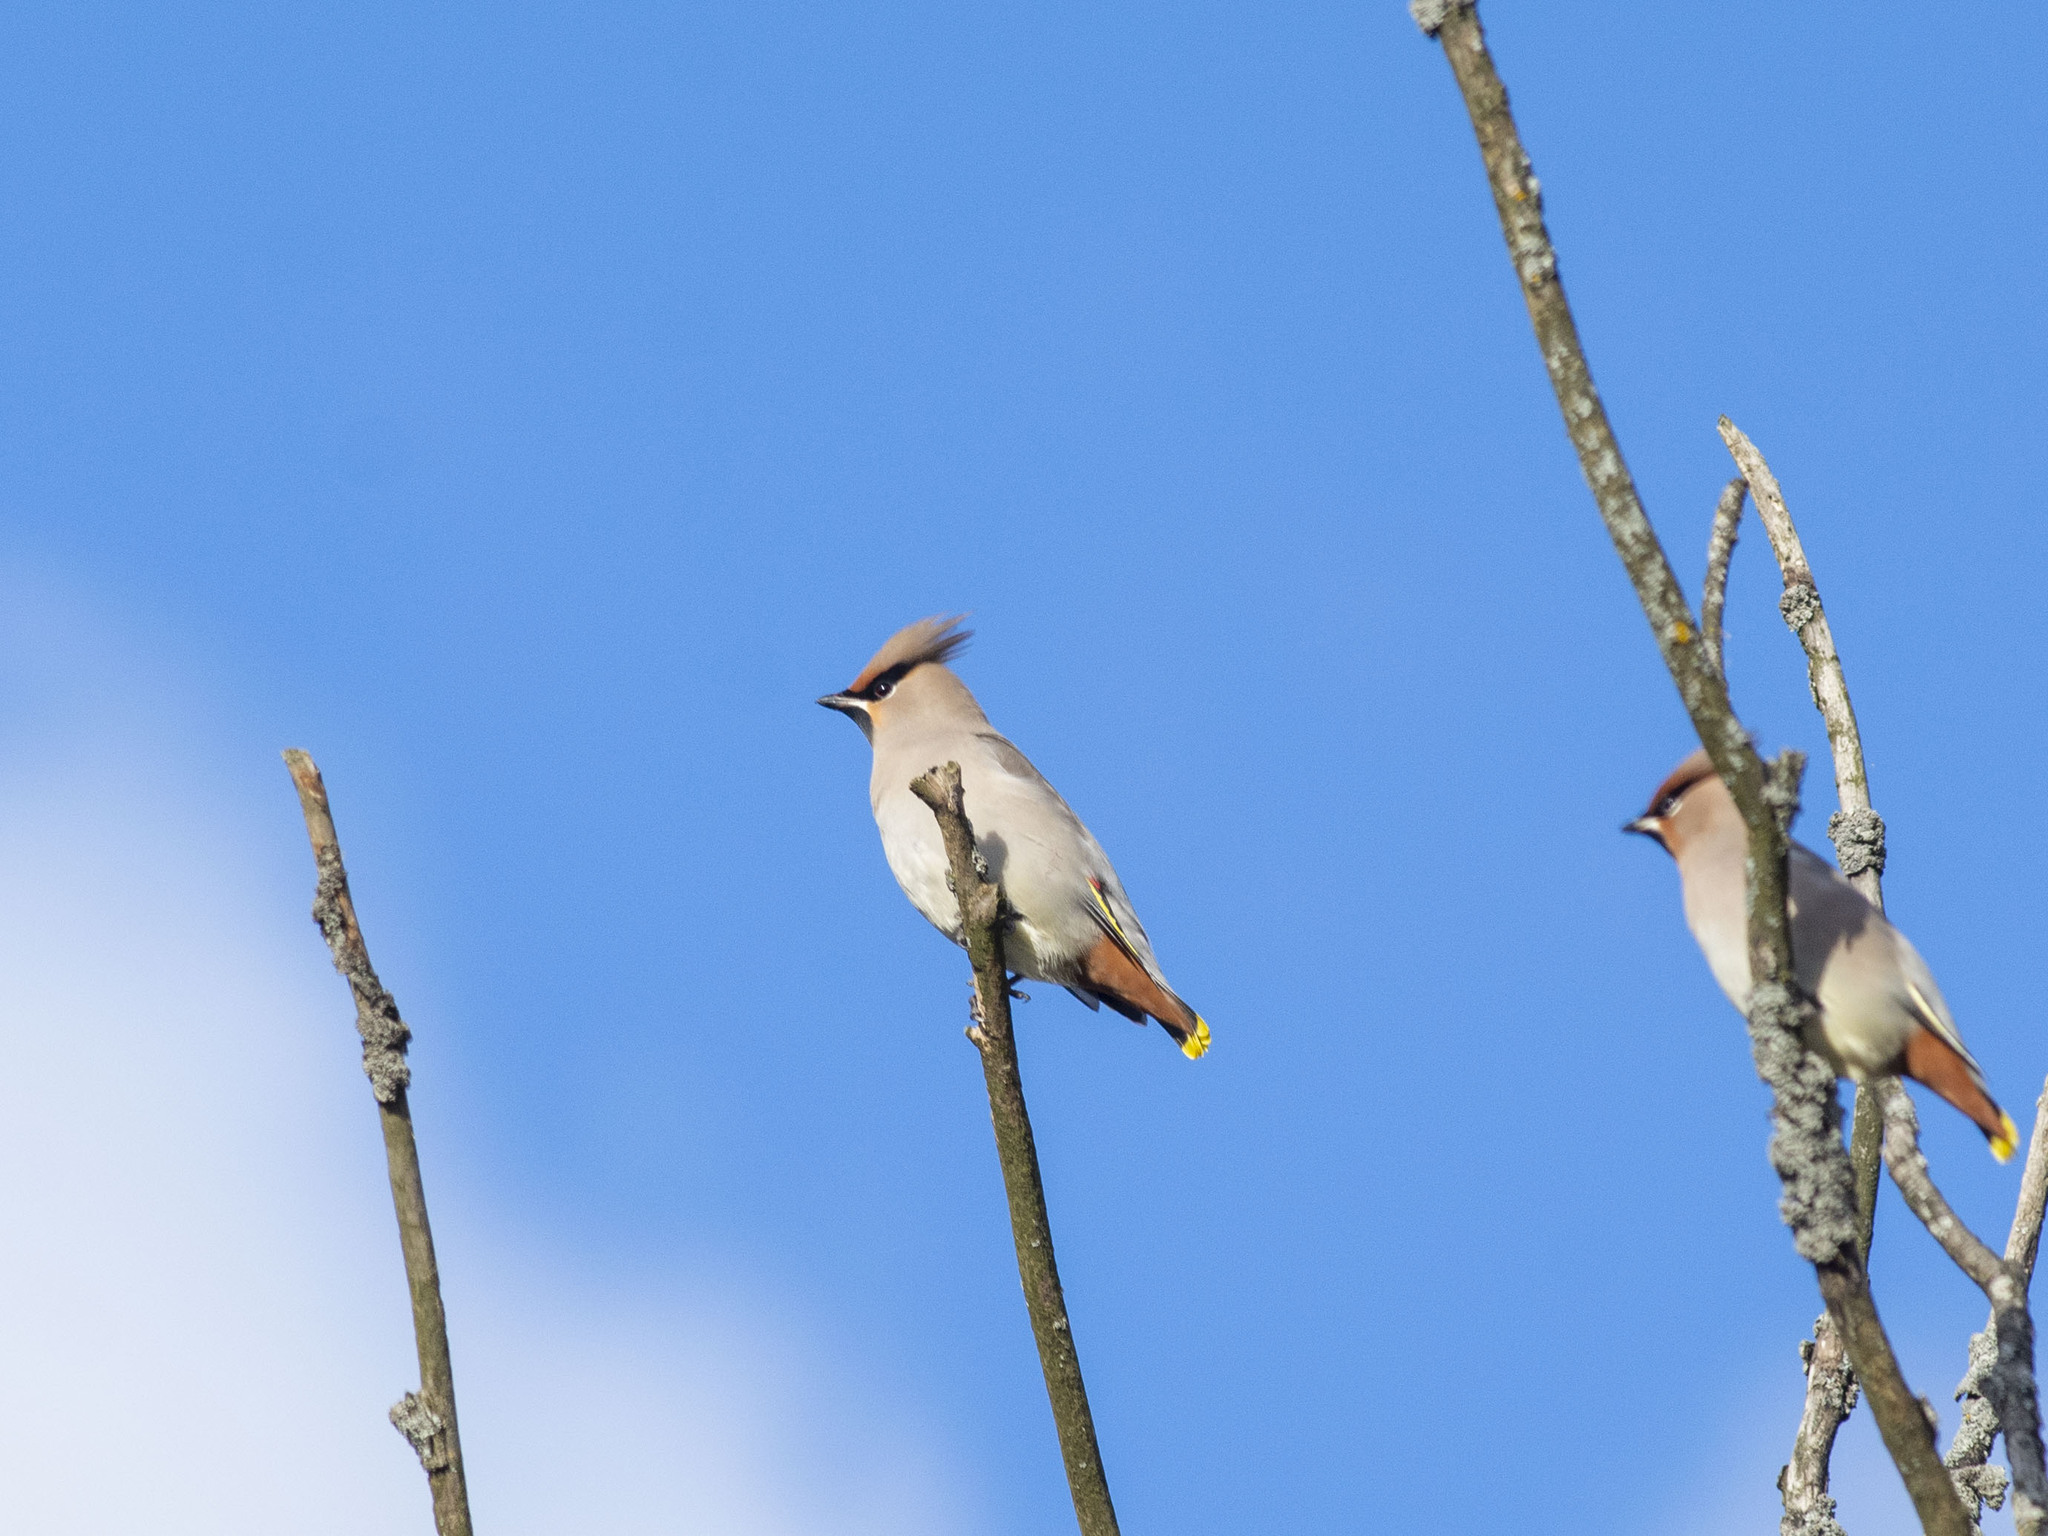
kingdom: Animalia
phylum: Chordata
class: Aves
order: Passeriformes
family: Bombycillidae
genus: Bombycilla
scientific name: Bombycilla garrulus
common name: Bohemian waxwing
